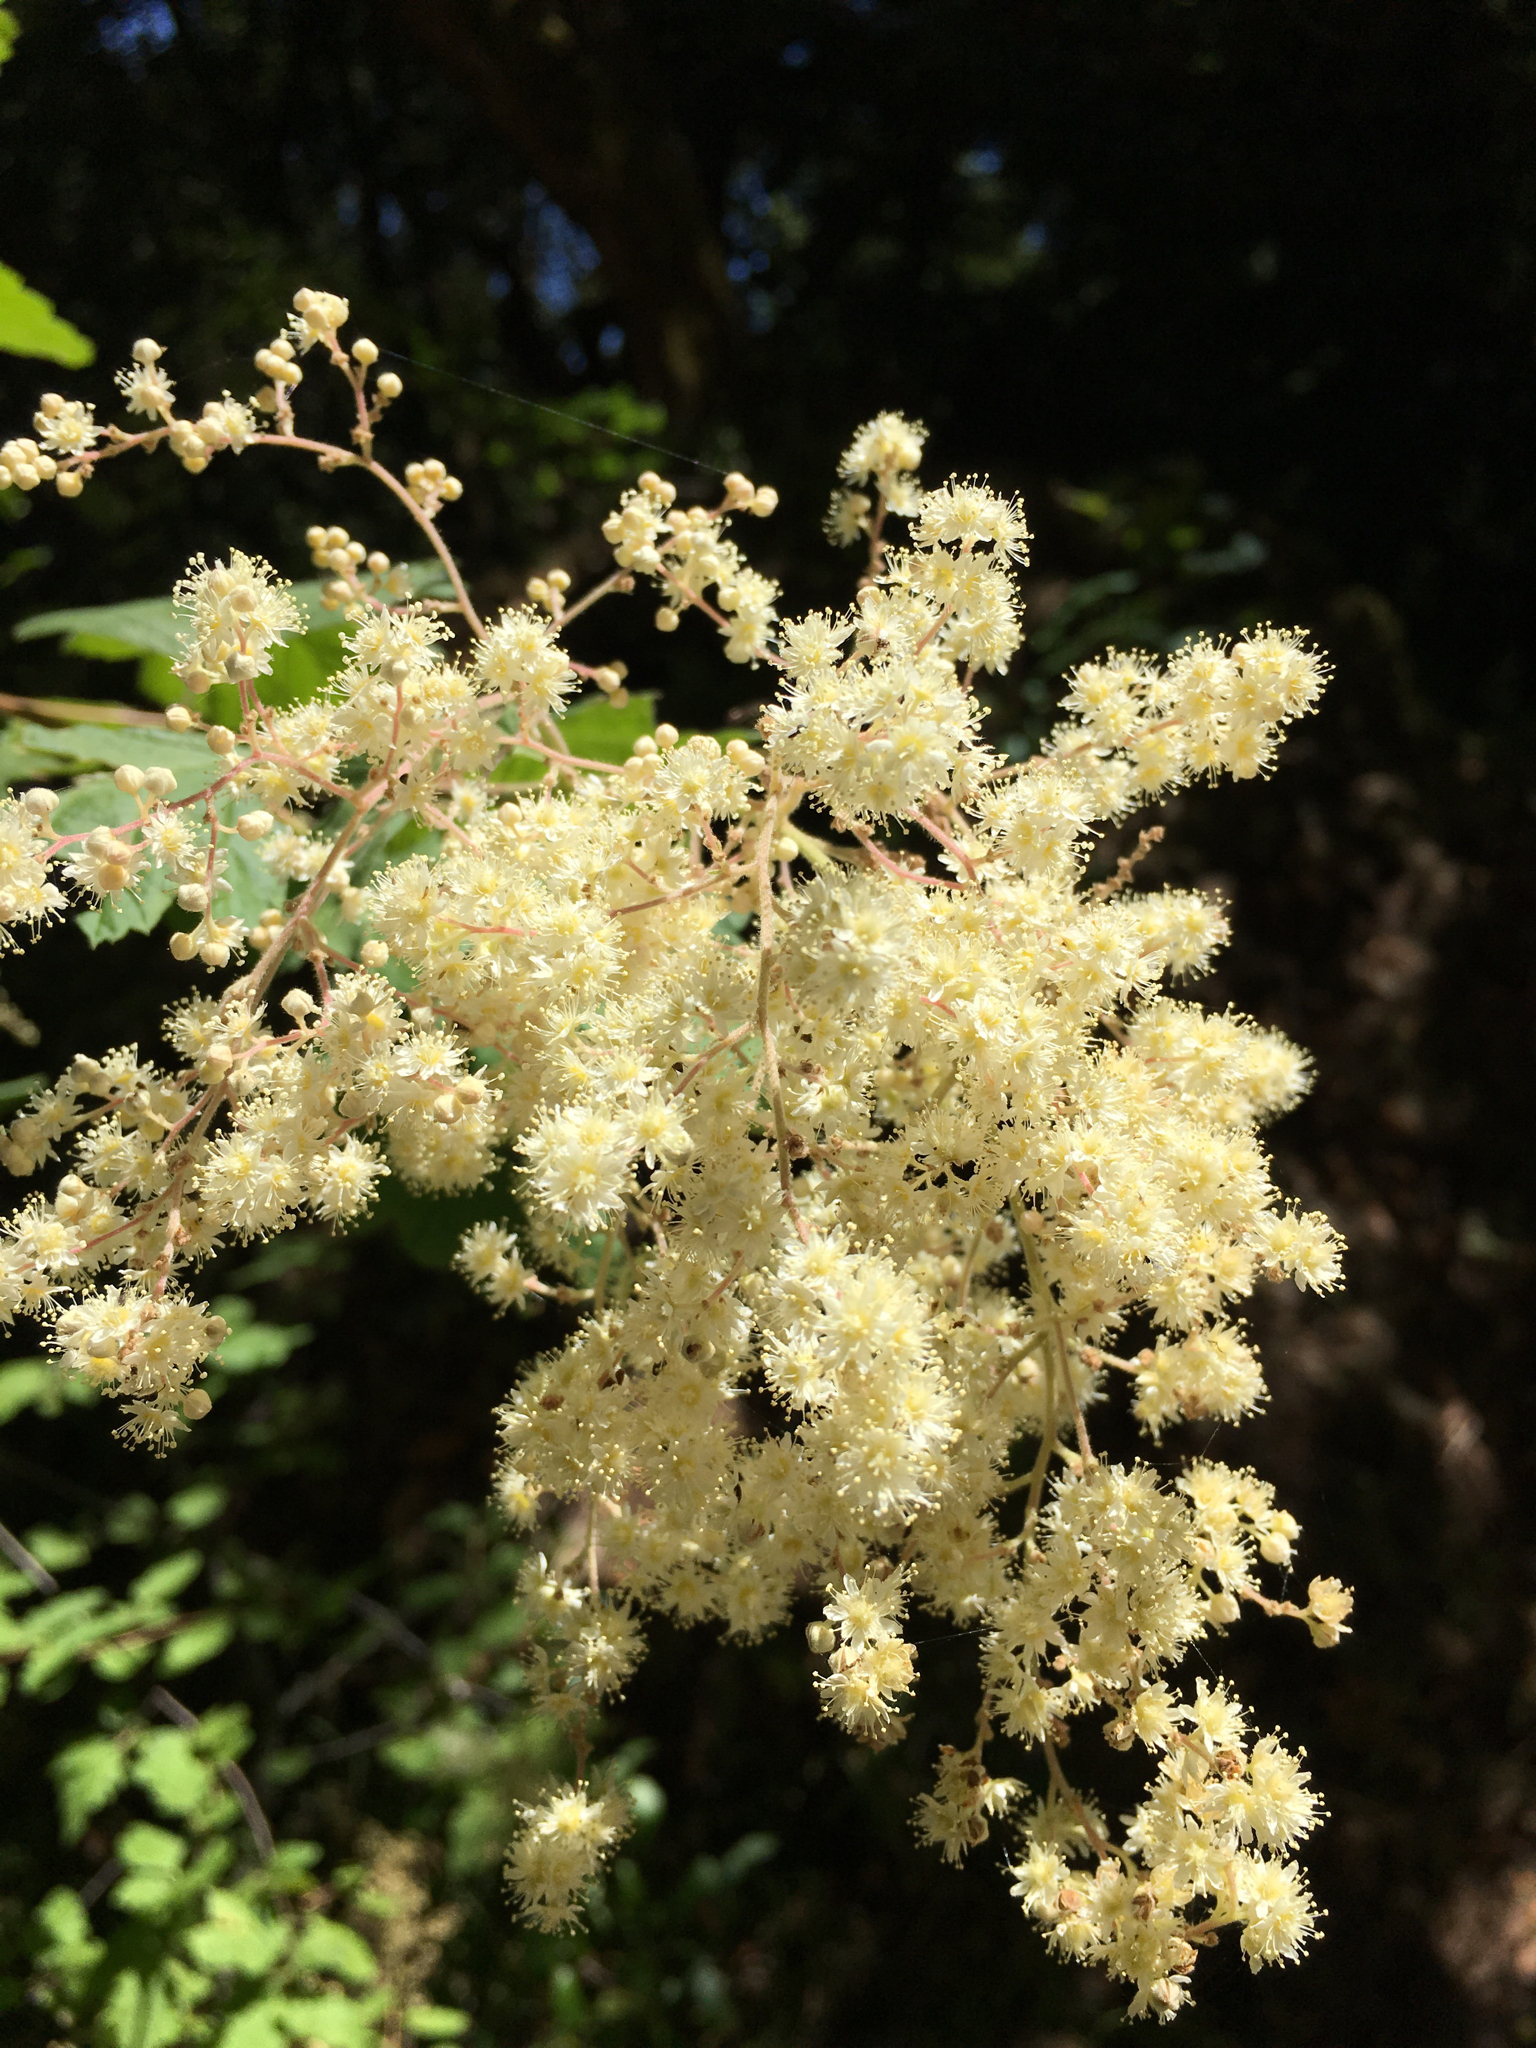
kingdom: Plantae
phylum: Tracheophyta
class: Magnoliopsida
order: Rosales
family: Rosaceae
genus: Holodiscus
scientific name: Holodiscus discolor
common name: Oceanspray
